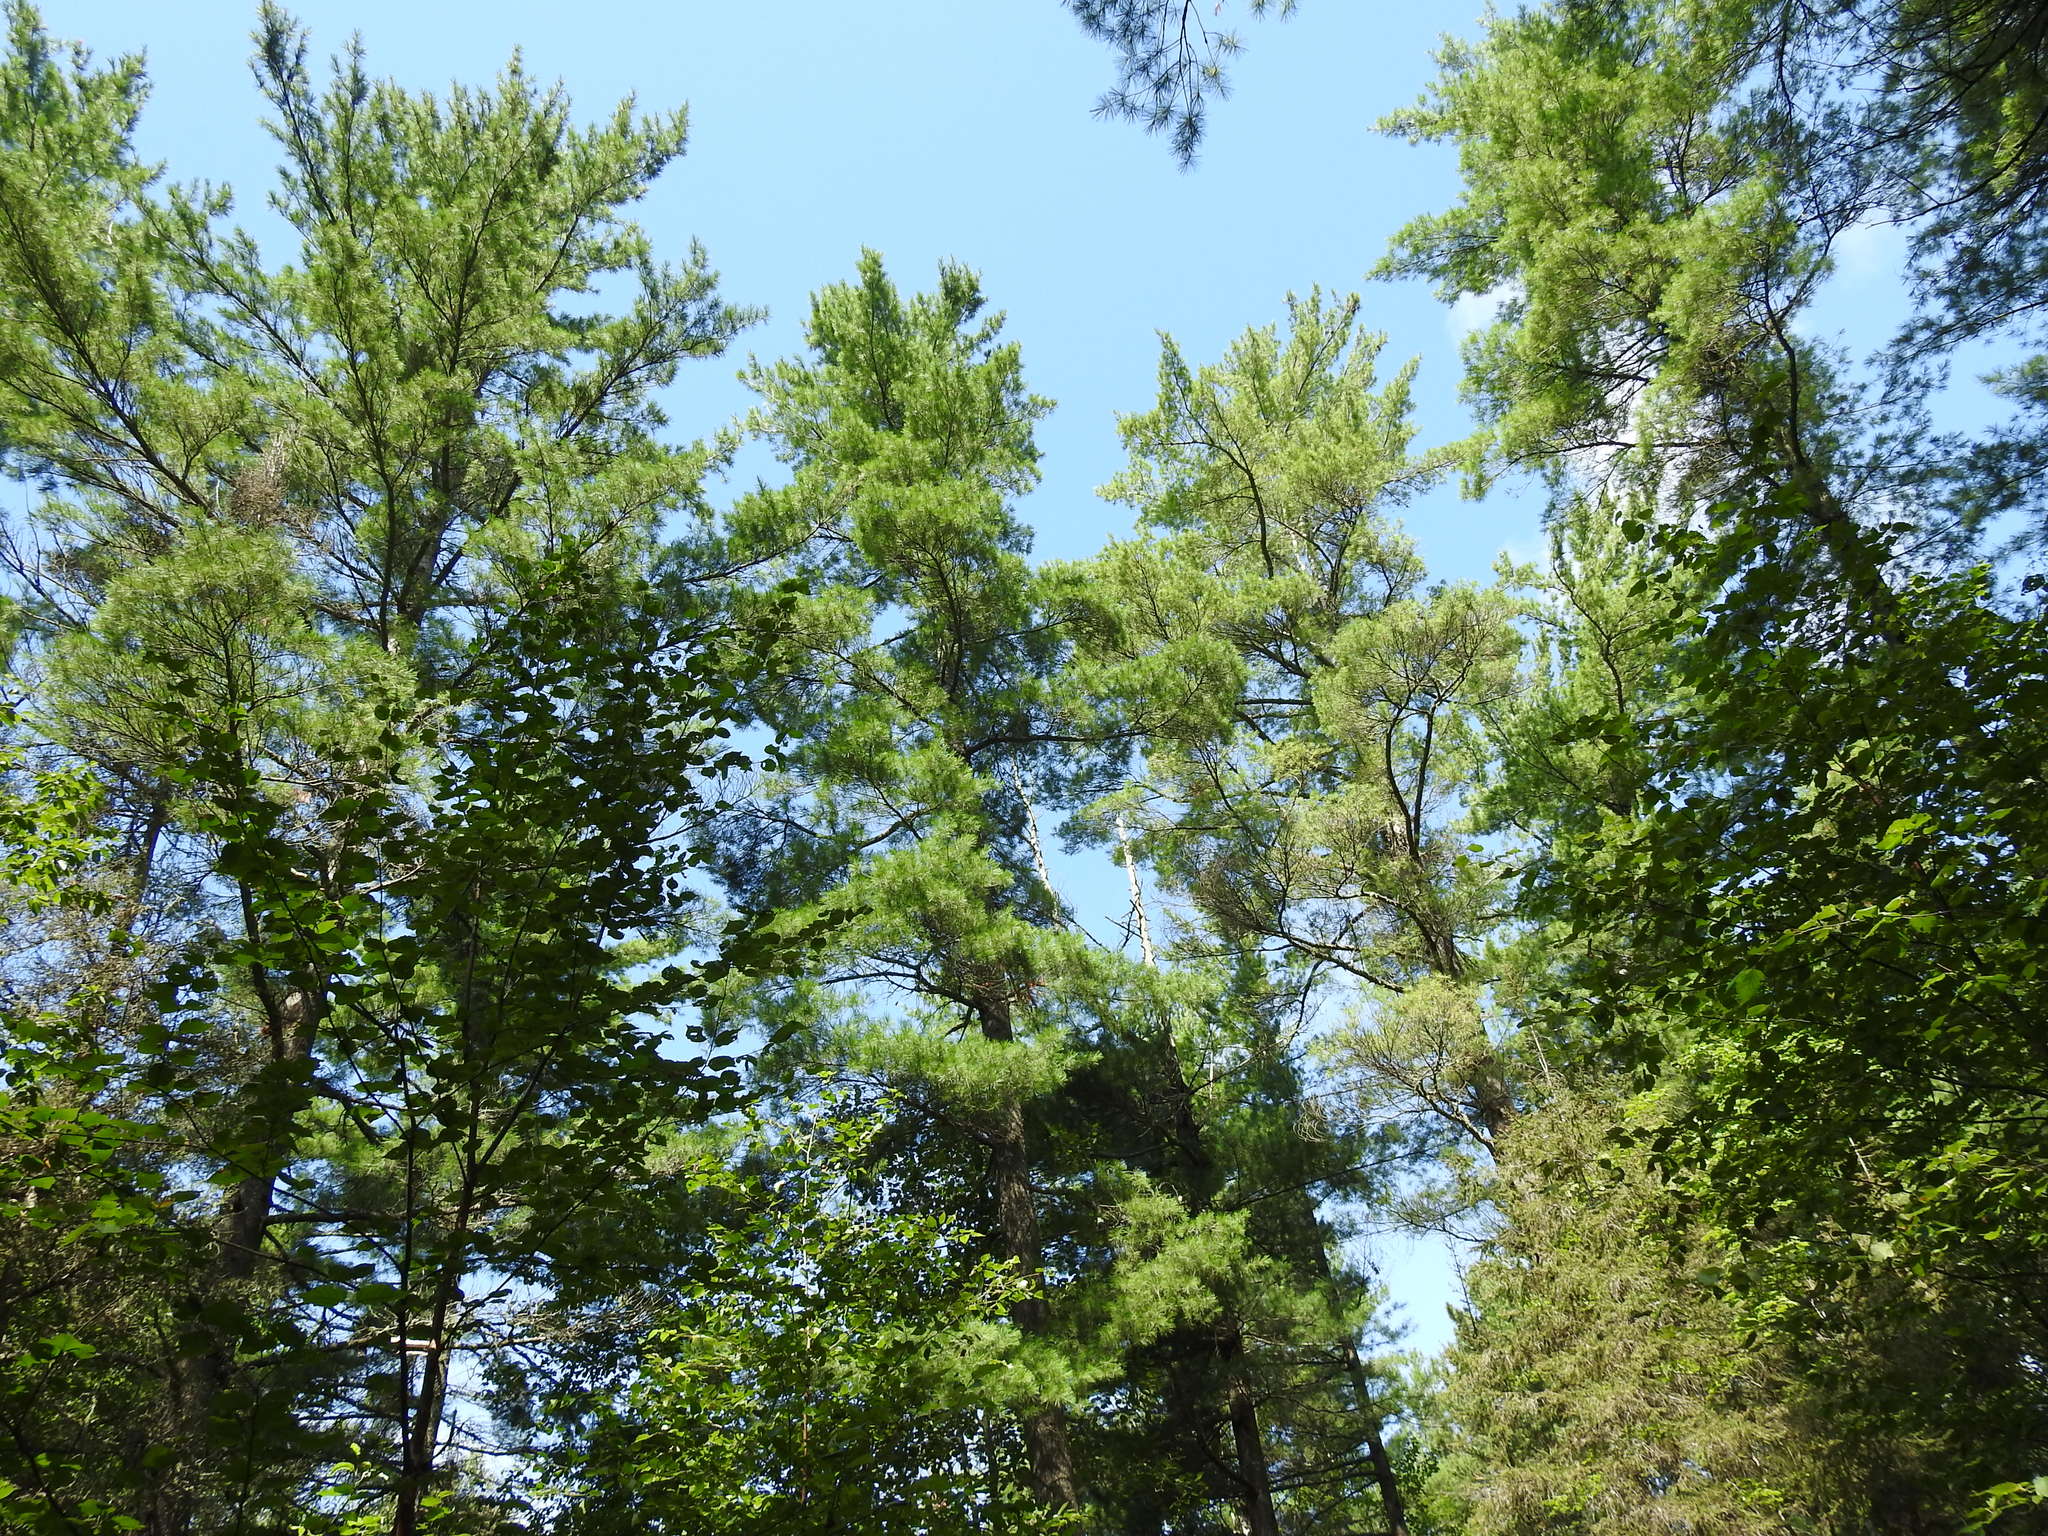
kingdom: Plantae
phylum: Tracheophyta
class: Pinopsida
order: Pinales
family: Pinaceae
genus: Pinus
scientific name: Pinus strobus
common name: Weymouth pine
